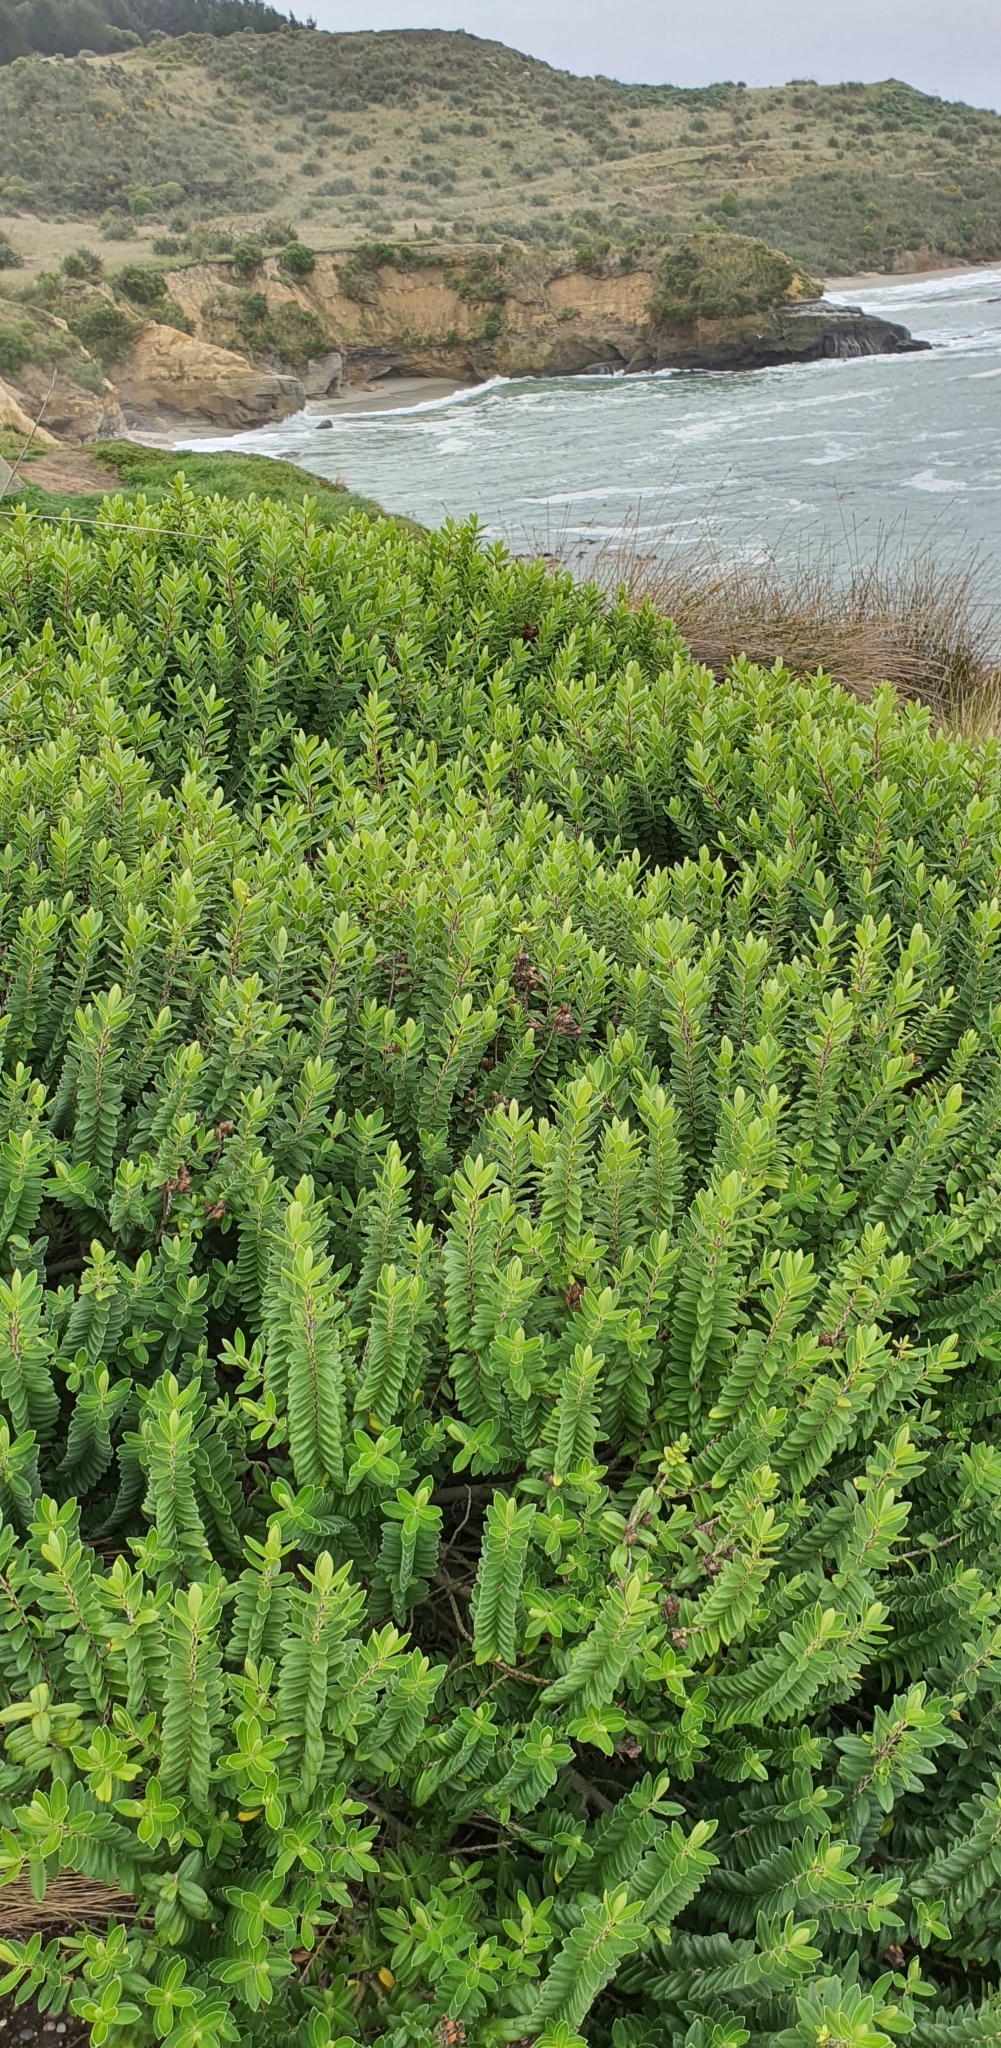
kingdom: Plantae
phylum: Tracheophyta
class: Magnoliopsida
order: Lamiales
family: Plantaginaceae
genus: Veronica
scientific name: Veronica elliptica
